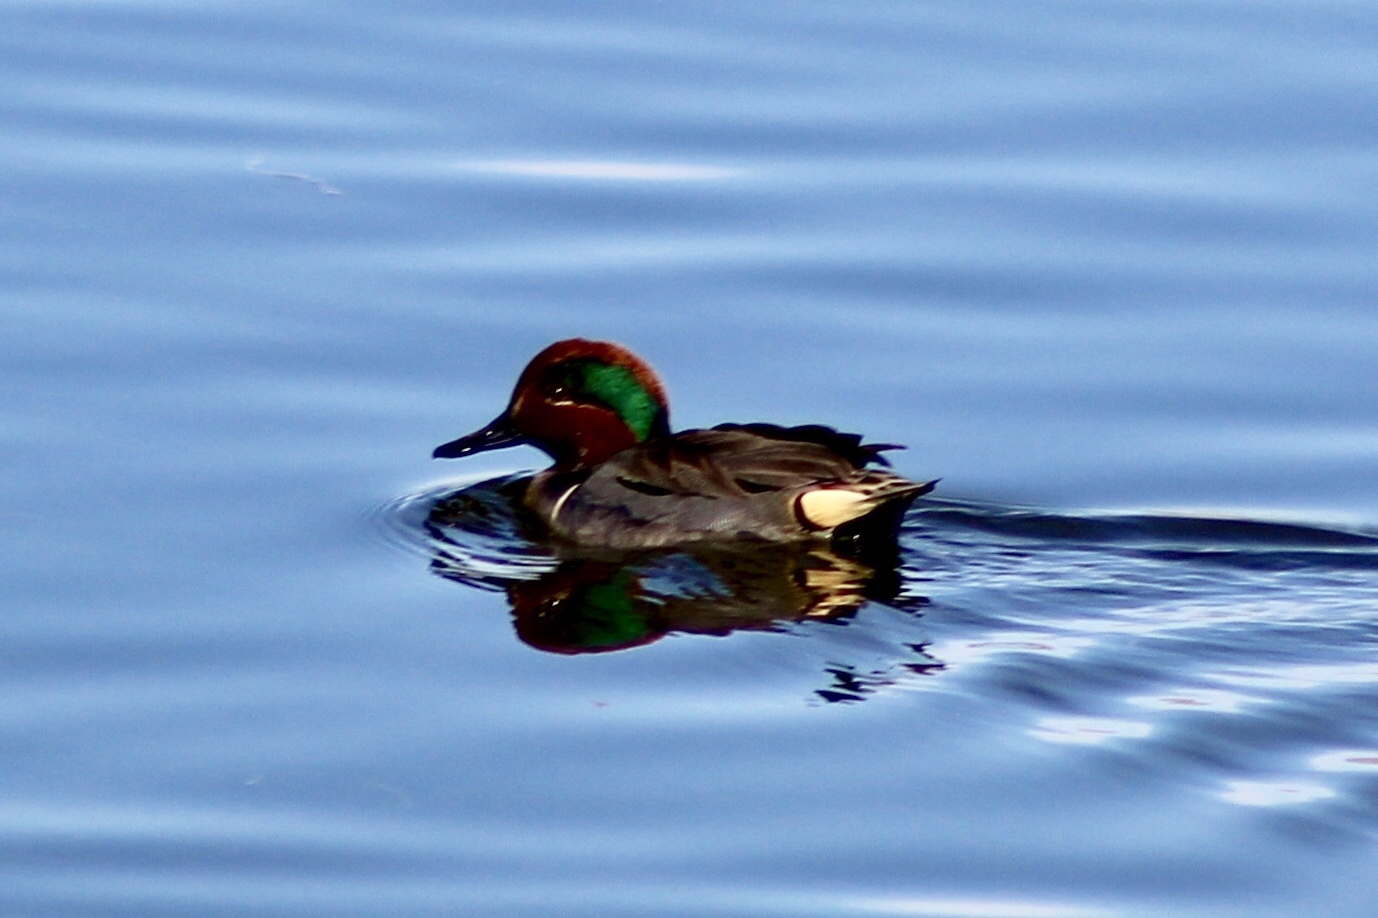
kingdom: Animalia
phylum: Chordata
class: Aves
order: Anseriformes
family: Anatidae
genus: Anas
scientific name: Anas crecca
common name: Eurasian teal
